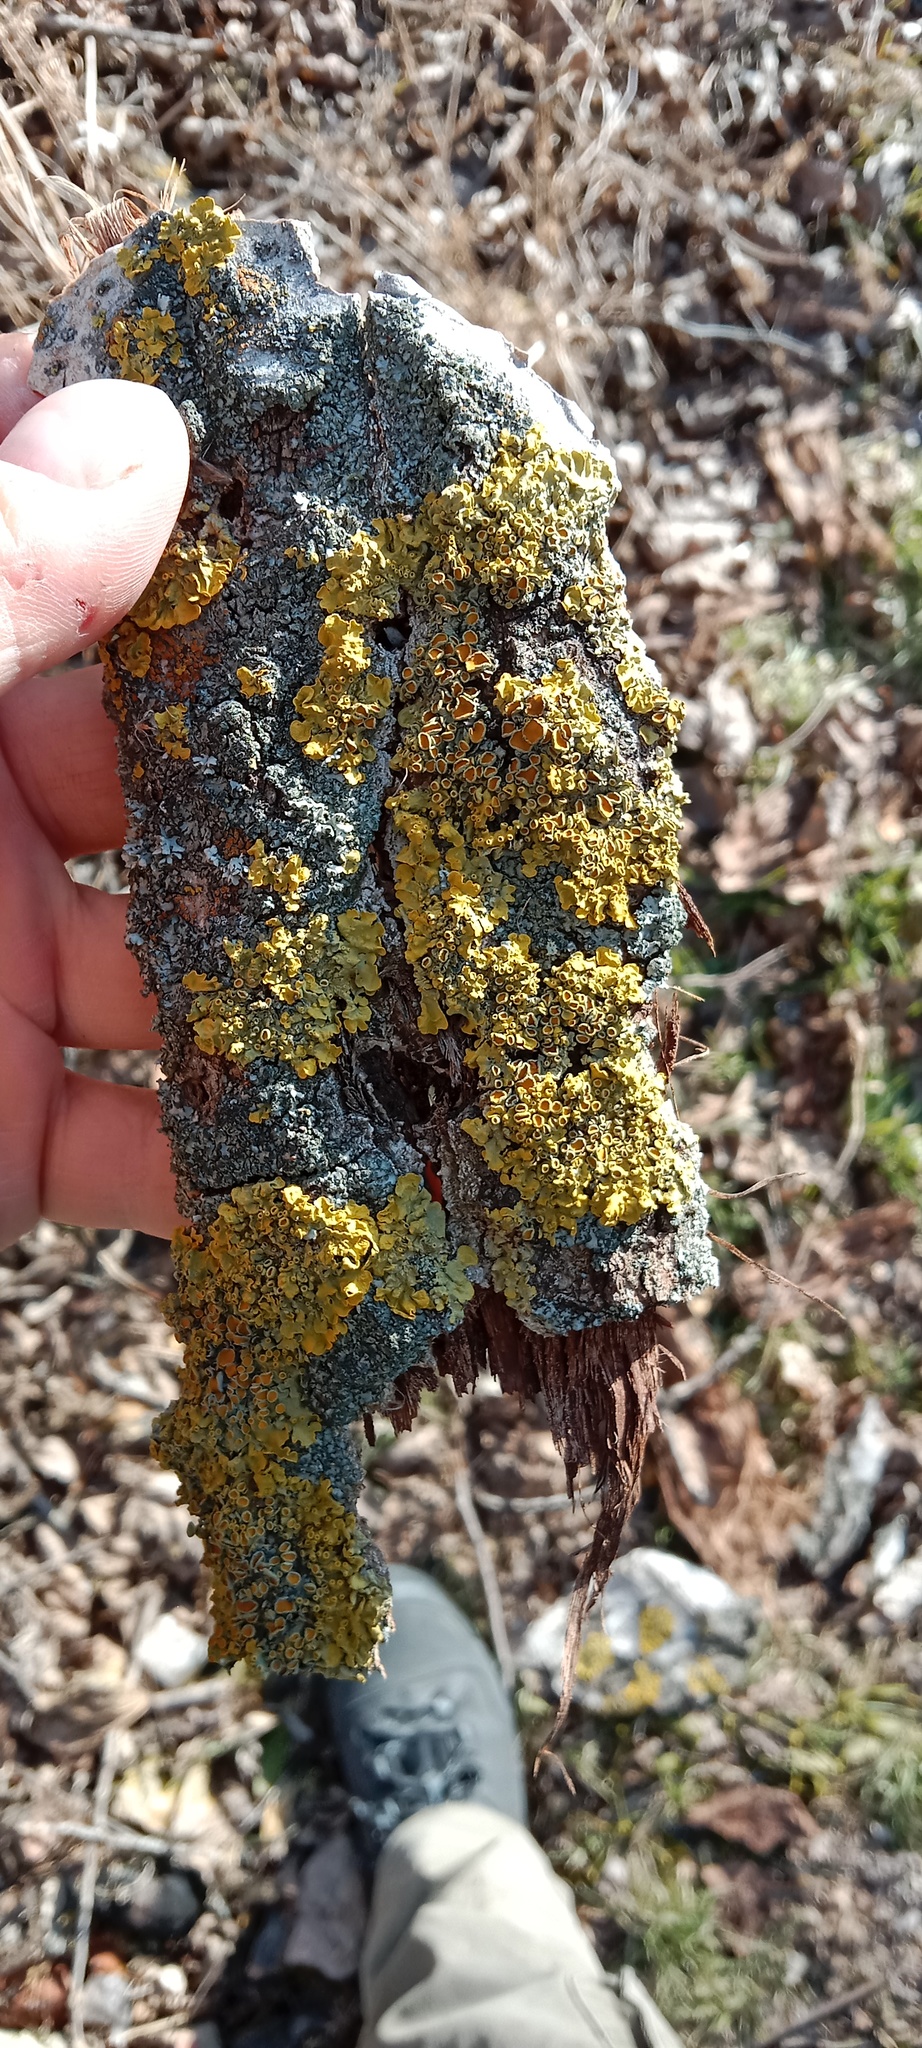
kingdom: Fungi
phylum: Ascomycota
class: Lecanoromycetes
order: Teloschistales
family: Teloschistaceae
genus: Xanthoria
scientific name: Xanthoria parietina
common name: Common orange lichen
